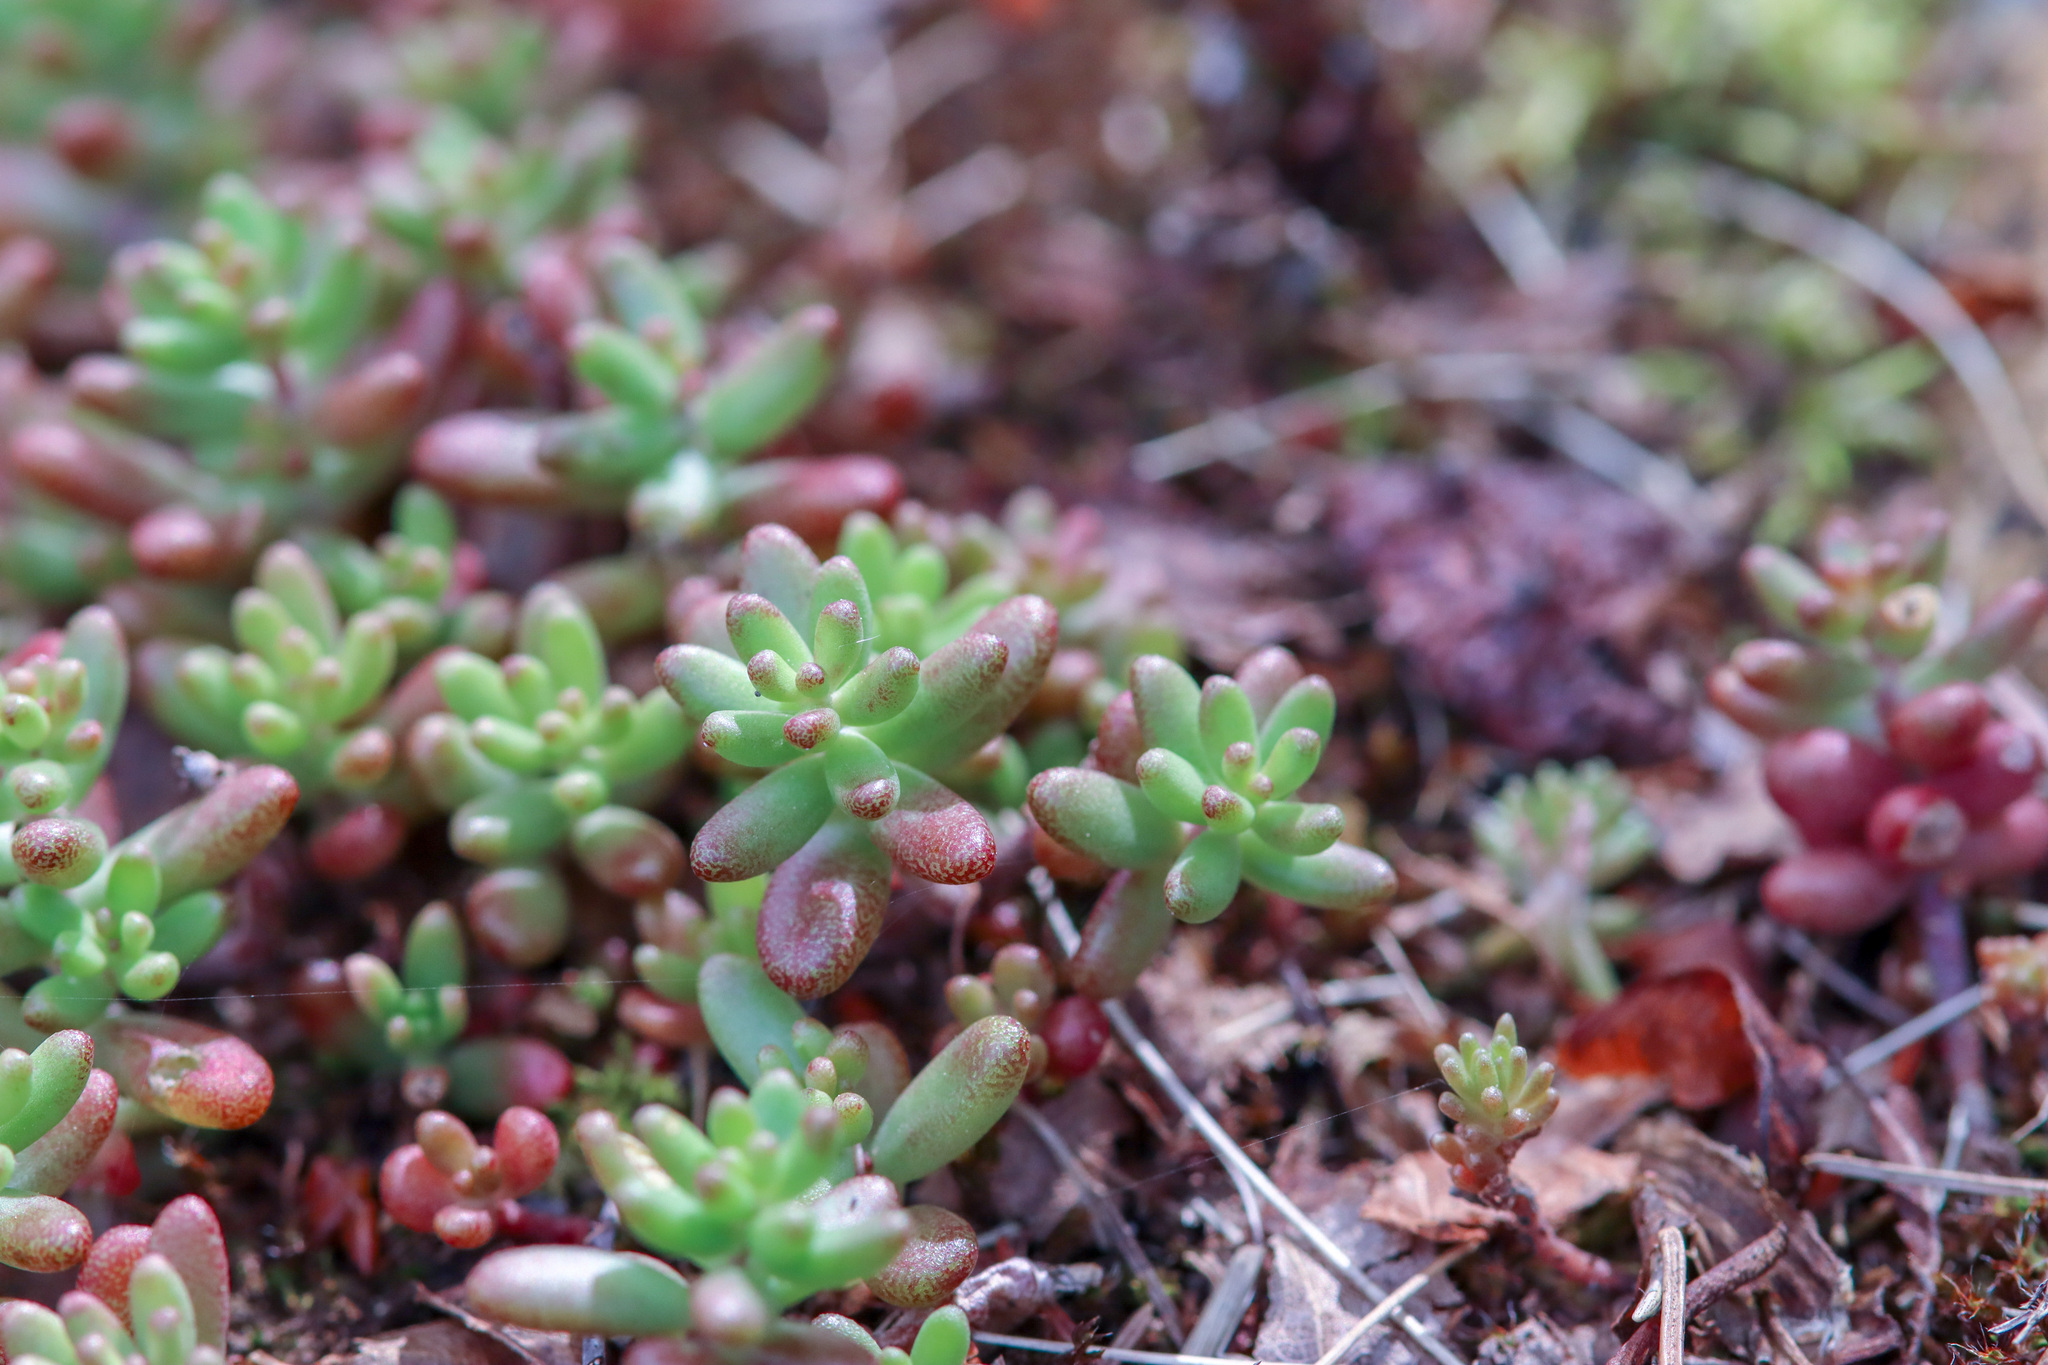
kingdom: Plantae
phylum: Tracheophyta
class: Magnoliopsida
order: Saxifragales
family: Crassulaceae
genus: Sedum
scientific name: Sedum album
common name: White stonecrop
